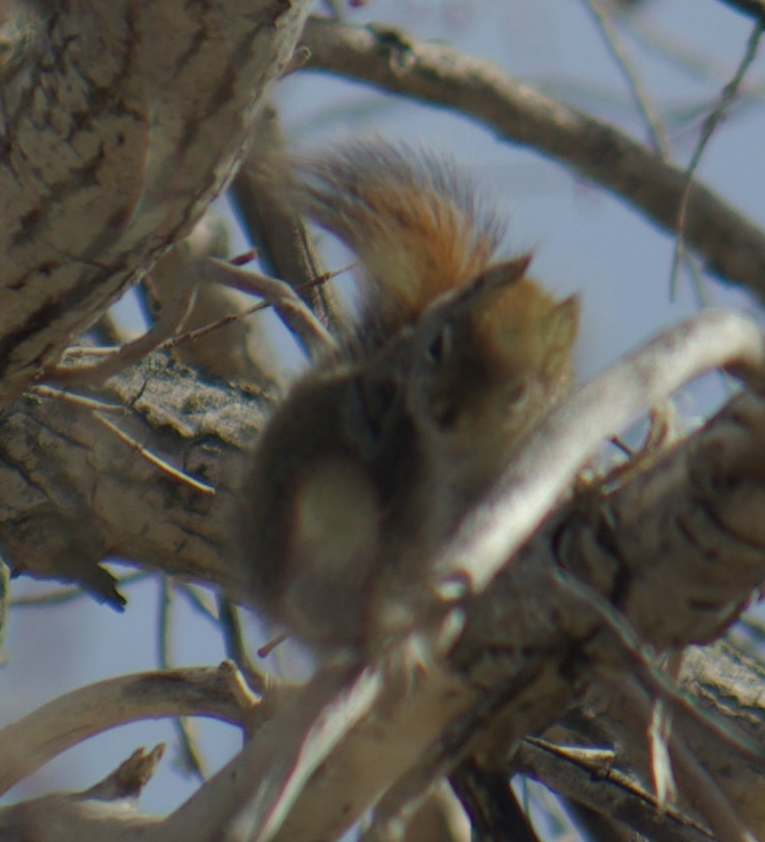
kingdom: Animalia
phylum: Chordata
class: Mammalia
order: Rodentia
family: Sciuridae
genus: Tamiasciurus
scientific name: Tamiasciurus hudsonicus
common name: Red squirrel
